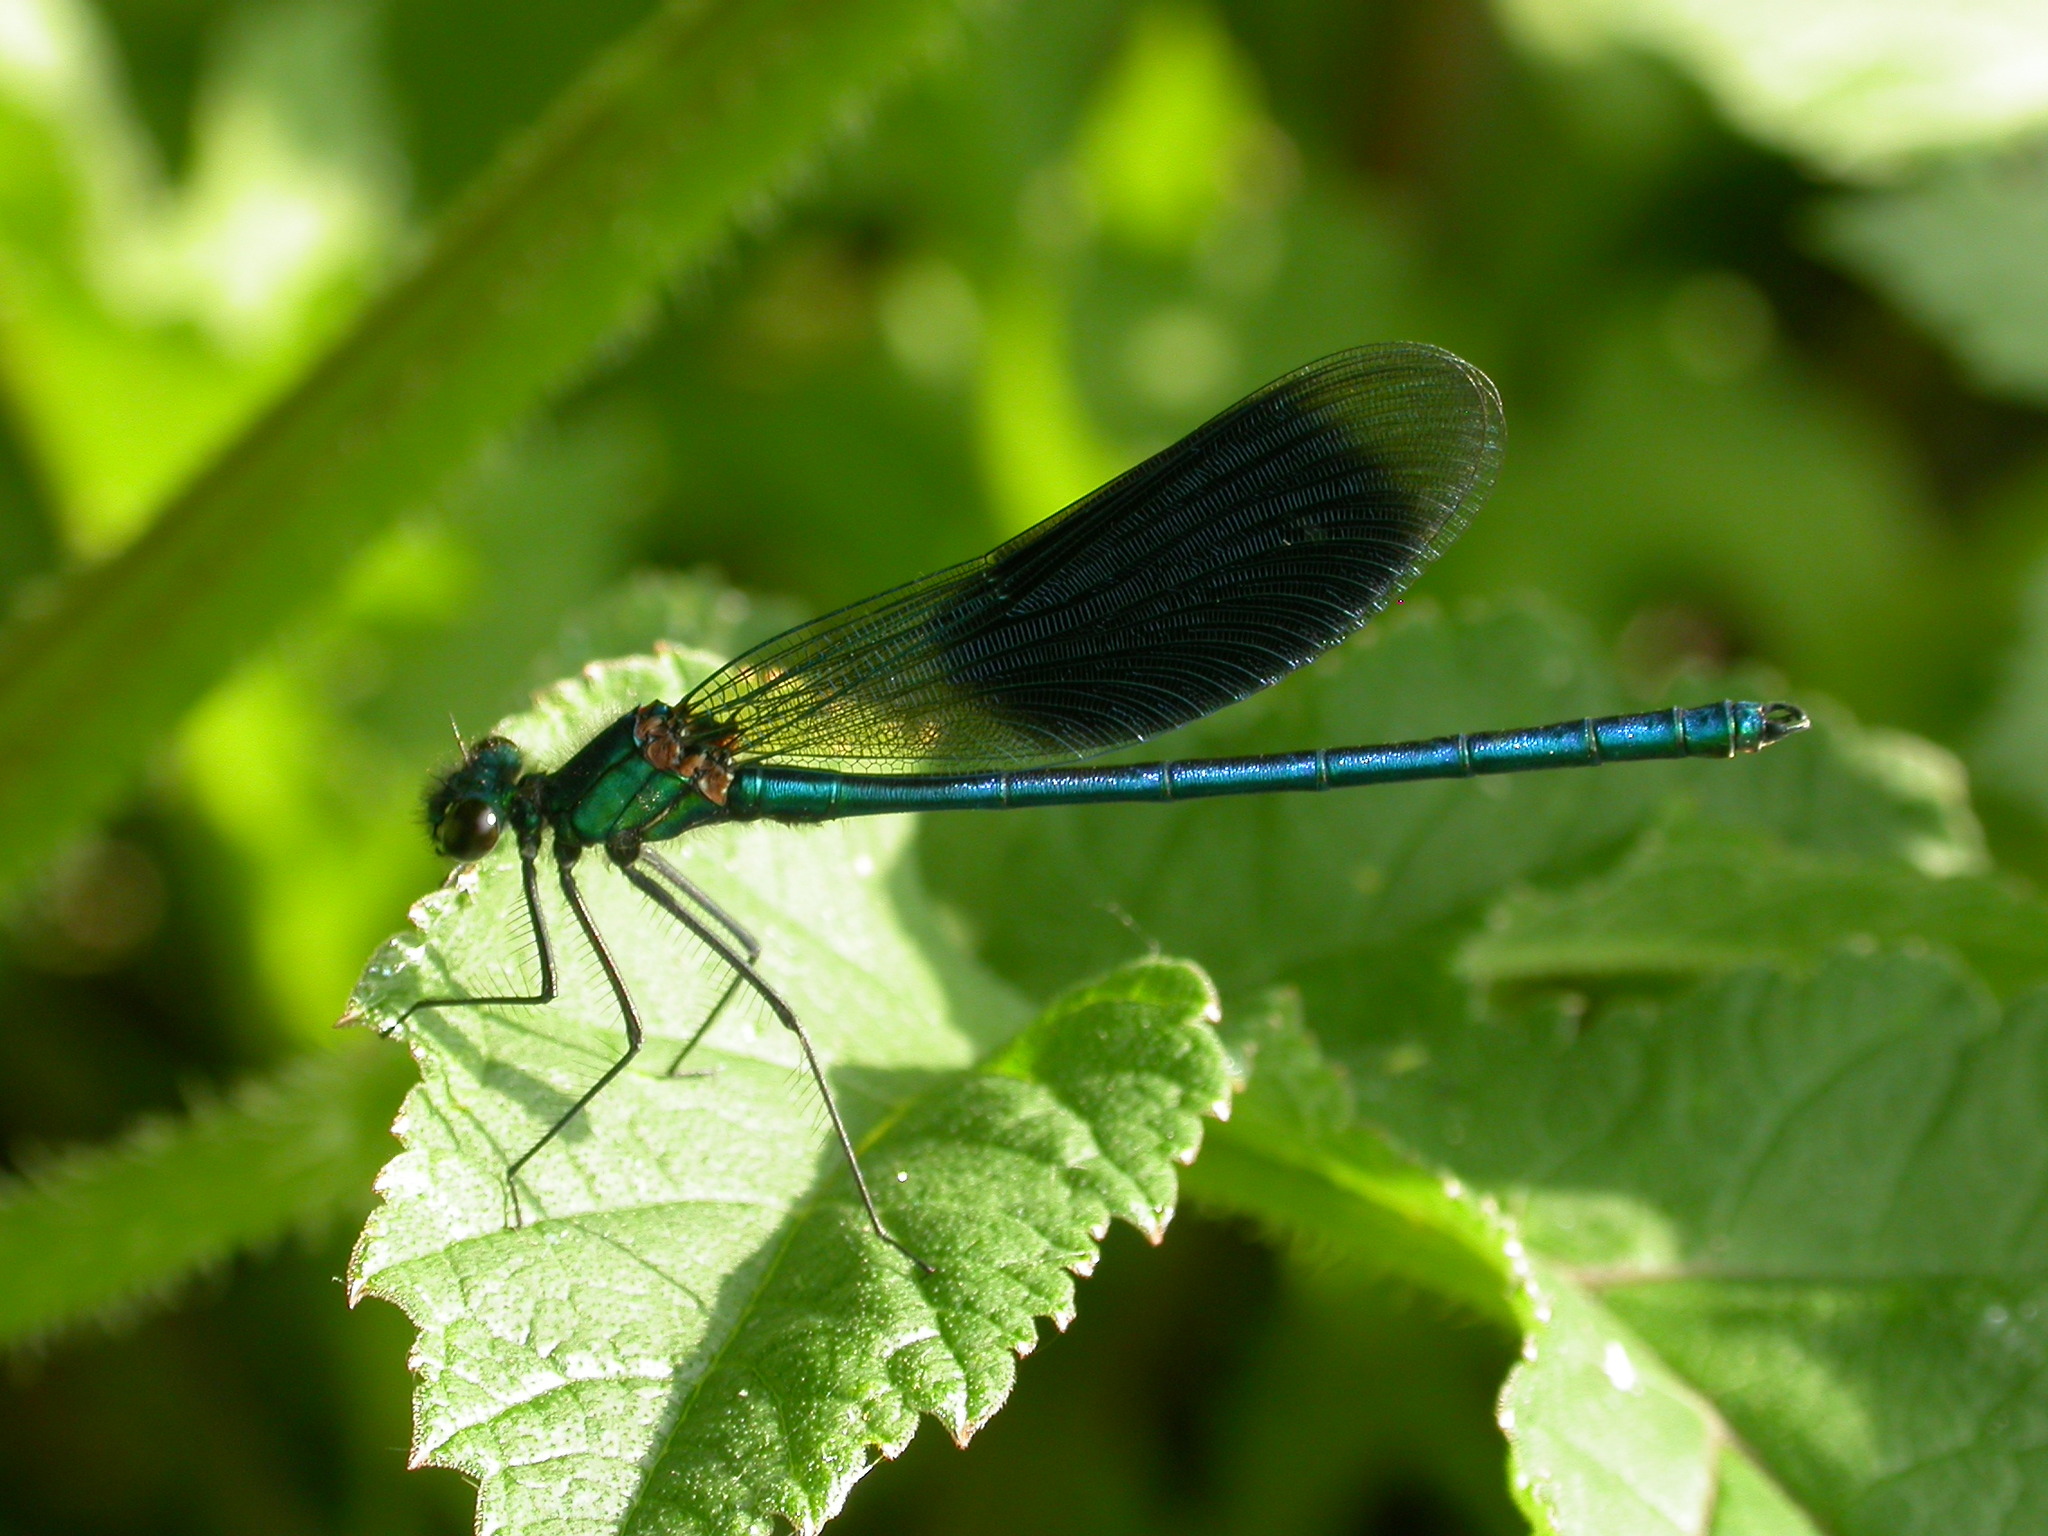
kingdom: Animalia
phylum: Arthropoda
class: Insecta
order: Odonata
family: Calopterygidae
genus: Calopteryx
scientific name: Calopteryx splendens
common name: Banded demoiselle
